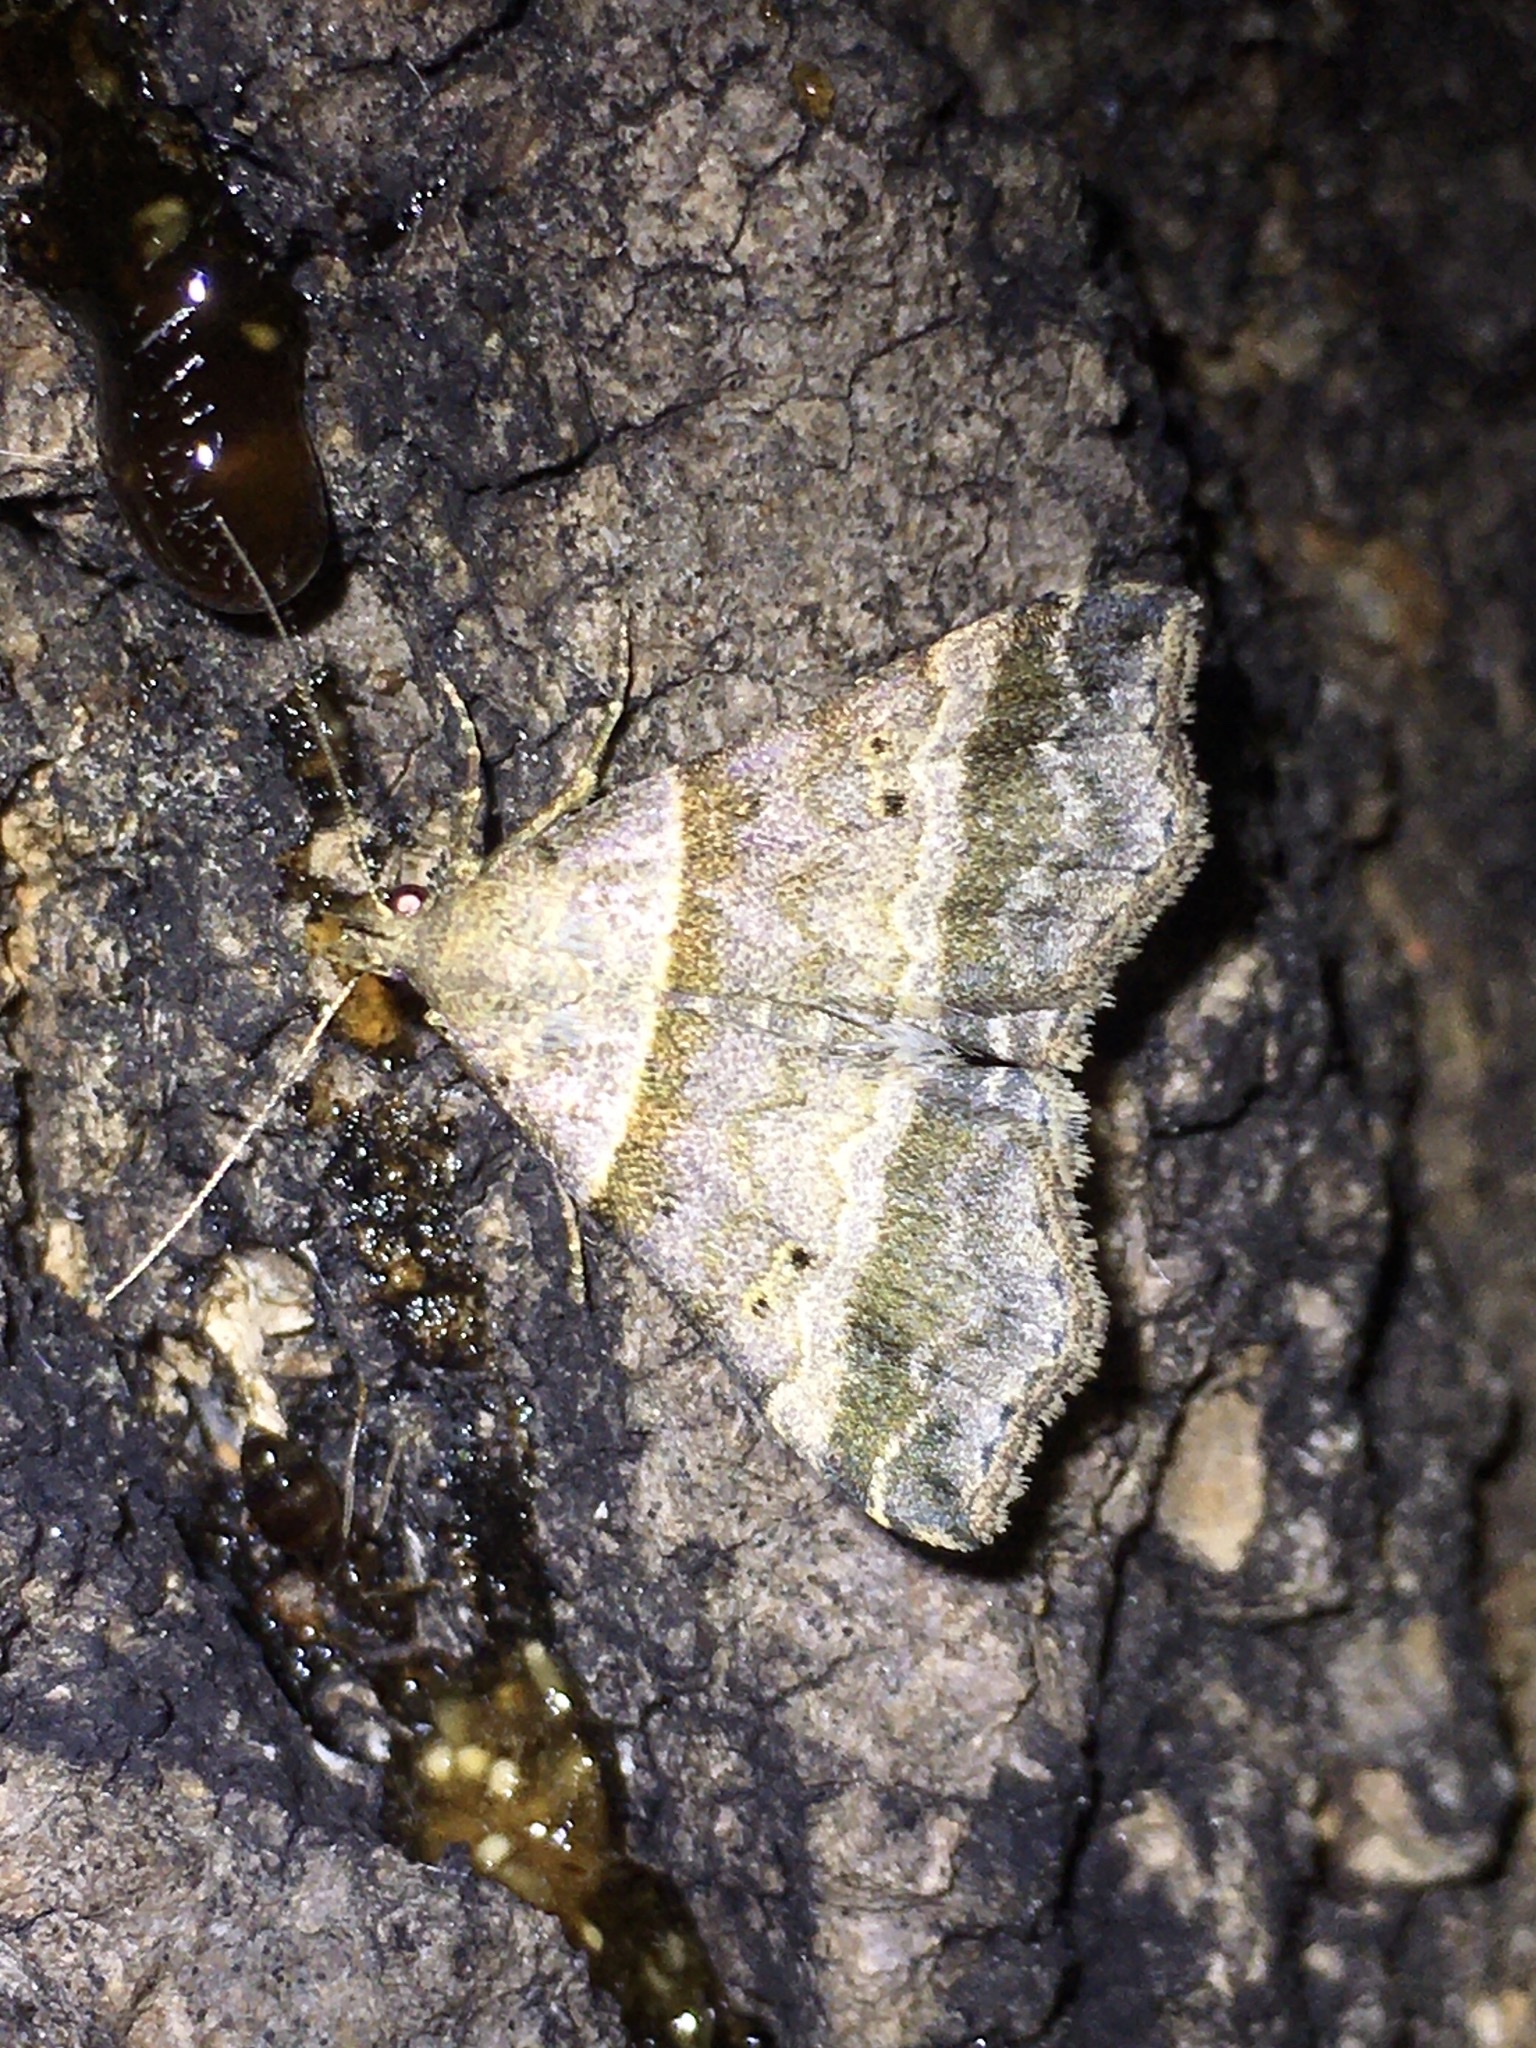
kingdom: Animalia
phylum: Arthropoda
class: Insecta
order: Lepidoptera
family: Erebidae
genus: Phaeolita
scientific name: Phaeolita pyramusalis
